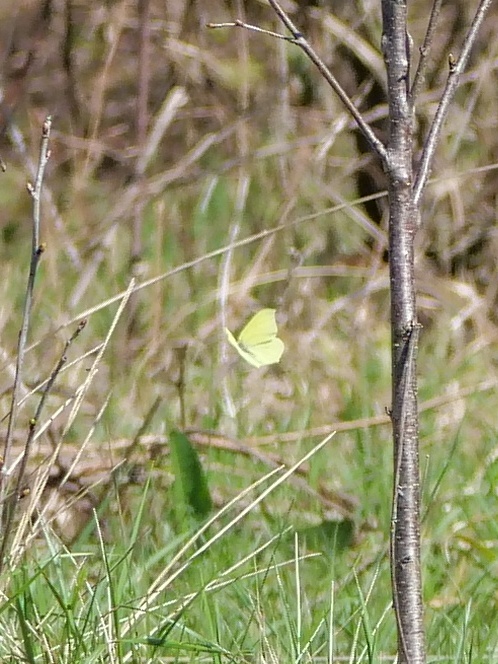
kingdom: Animalia
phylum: Arthropoda
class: Insecta
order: Lepidoptera
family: Pieridae
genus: Gonepteryx
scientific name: Gonepteryx rhamni
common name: Brimstone
